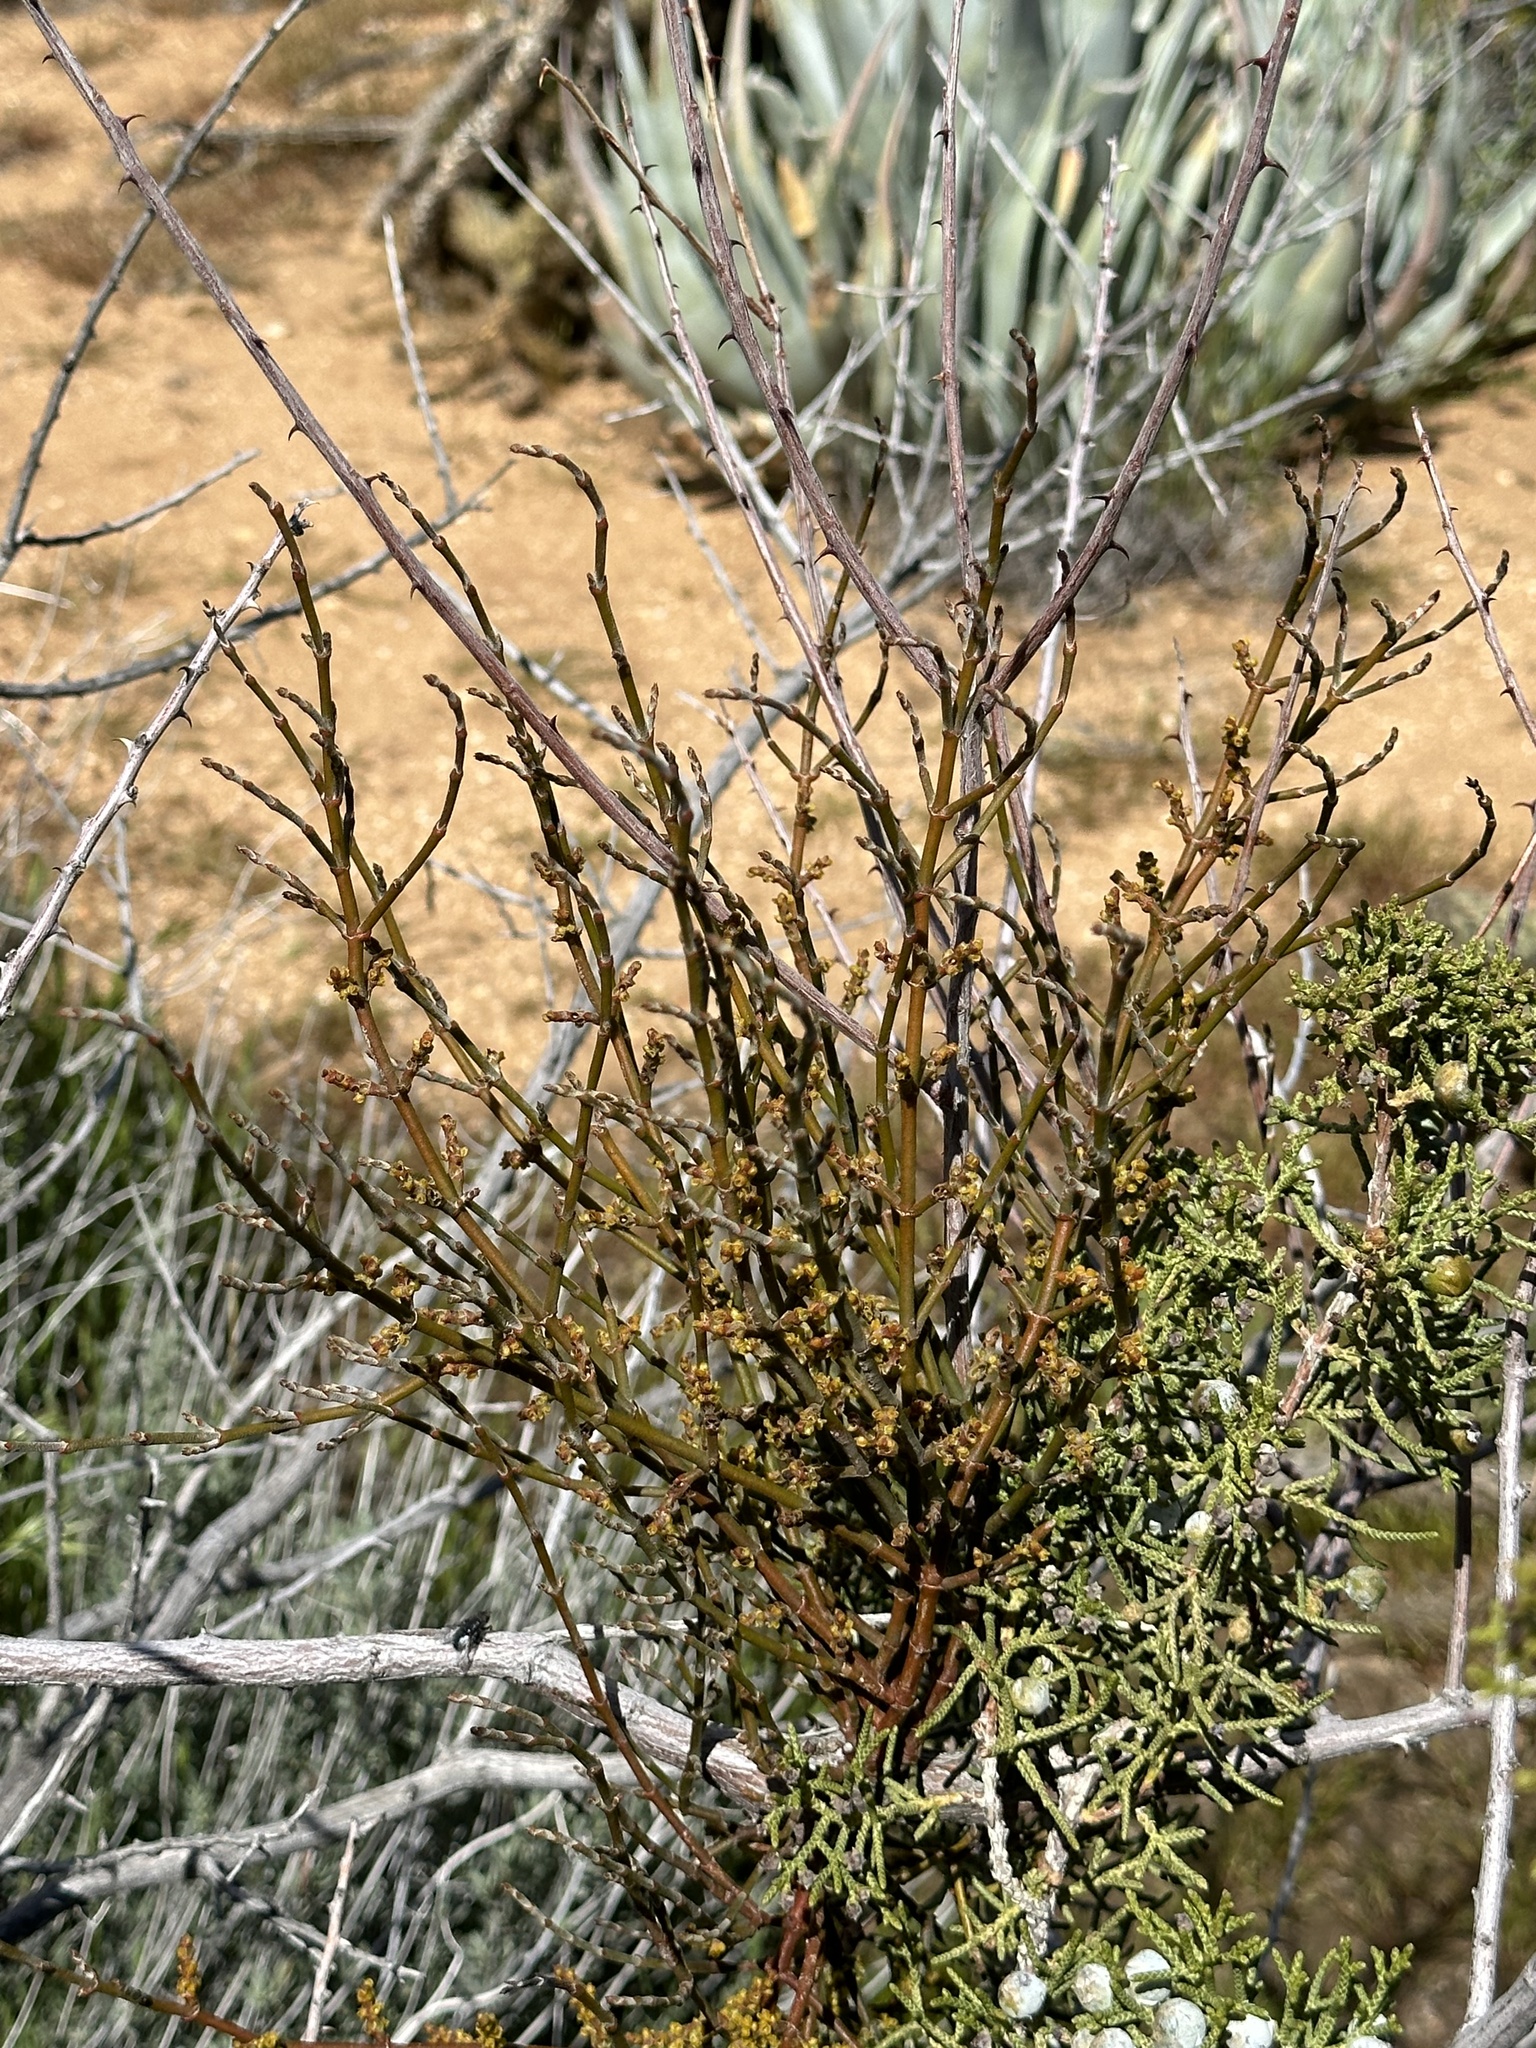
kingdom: Plantae
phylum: Tracheophyta
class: Magnoliopsida
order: Santalales
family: Viscaceae
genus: Phoradendron
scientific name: Phoradendron californicum
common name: Acacia mistletoe
